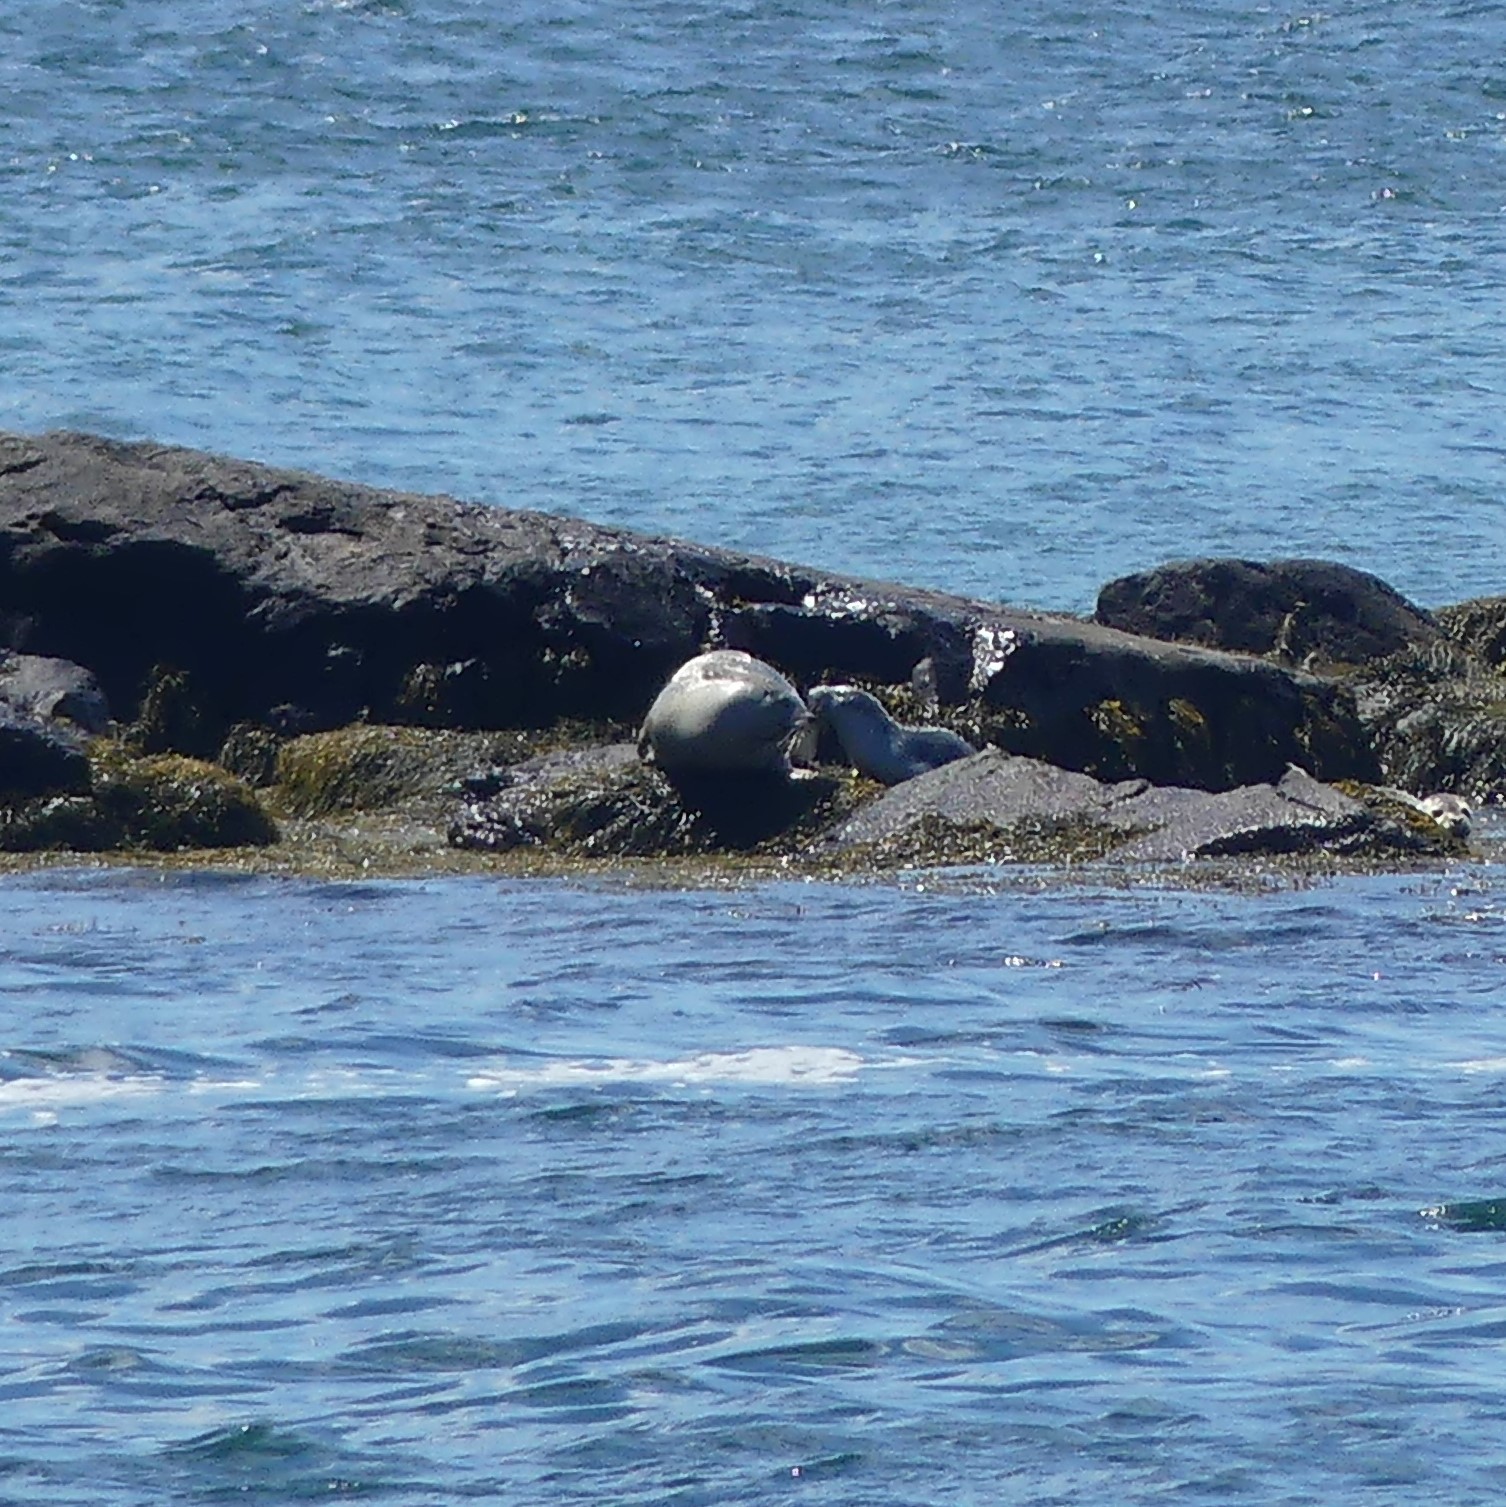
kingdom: Animalia
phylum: Chordata
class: Mammalia
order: Carnivora
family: Phocidae
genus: Phoca
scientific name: Phoca vitulina
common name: Harbor seal
